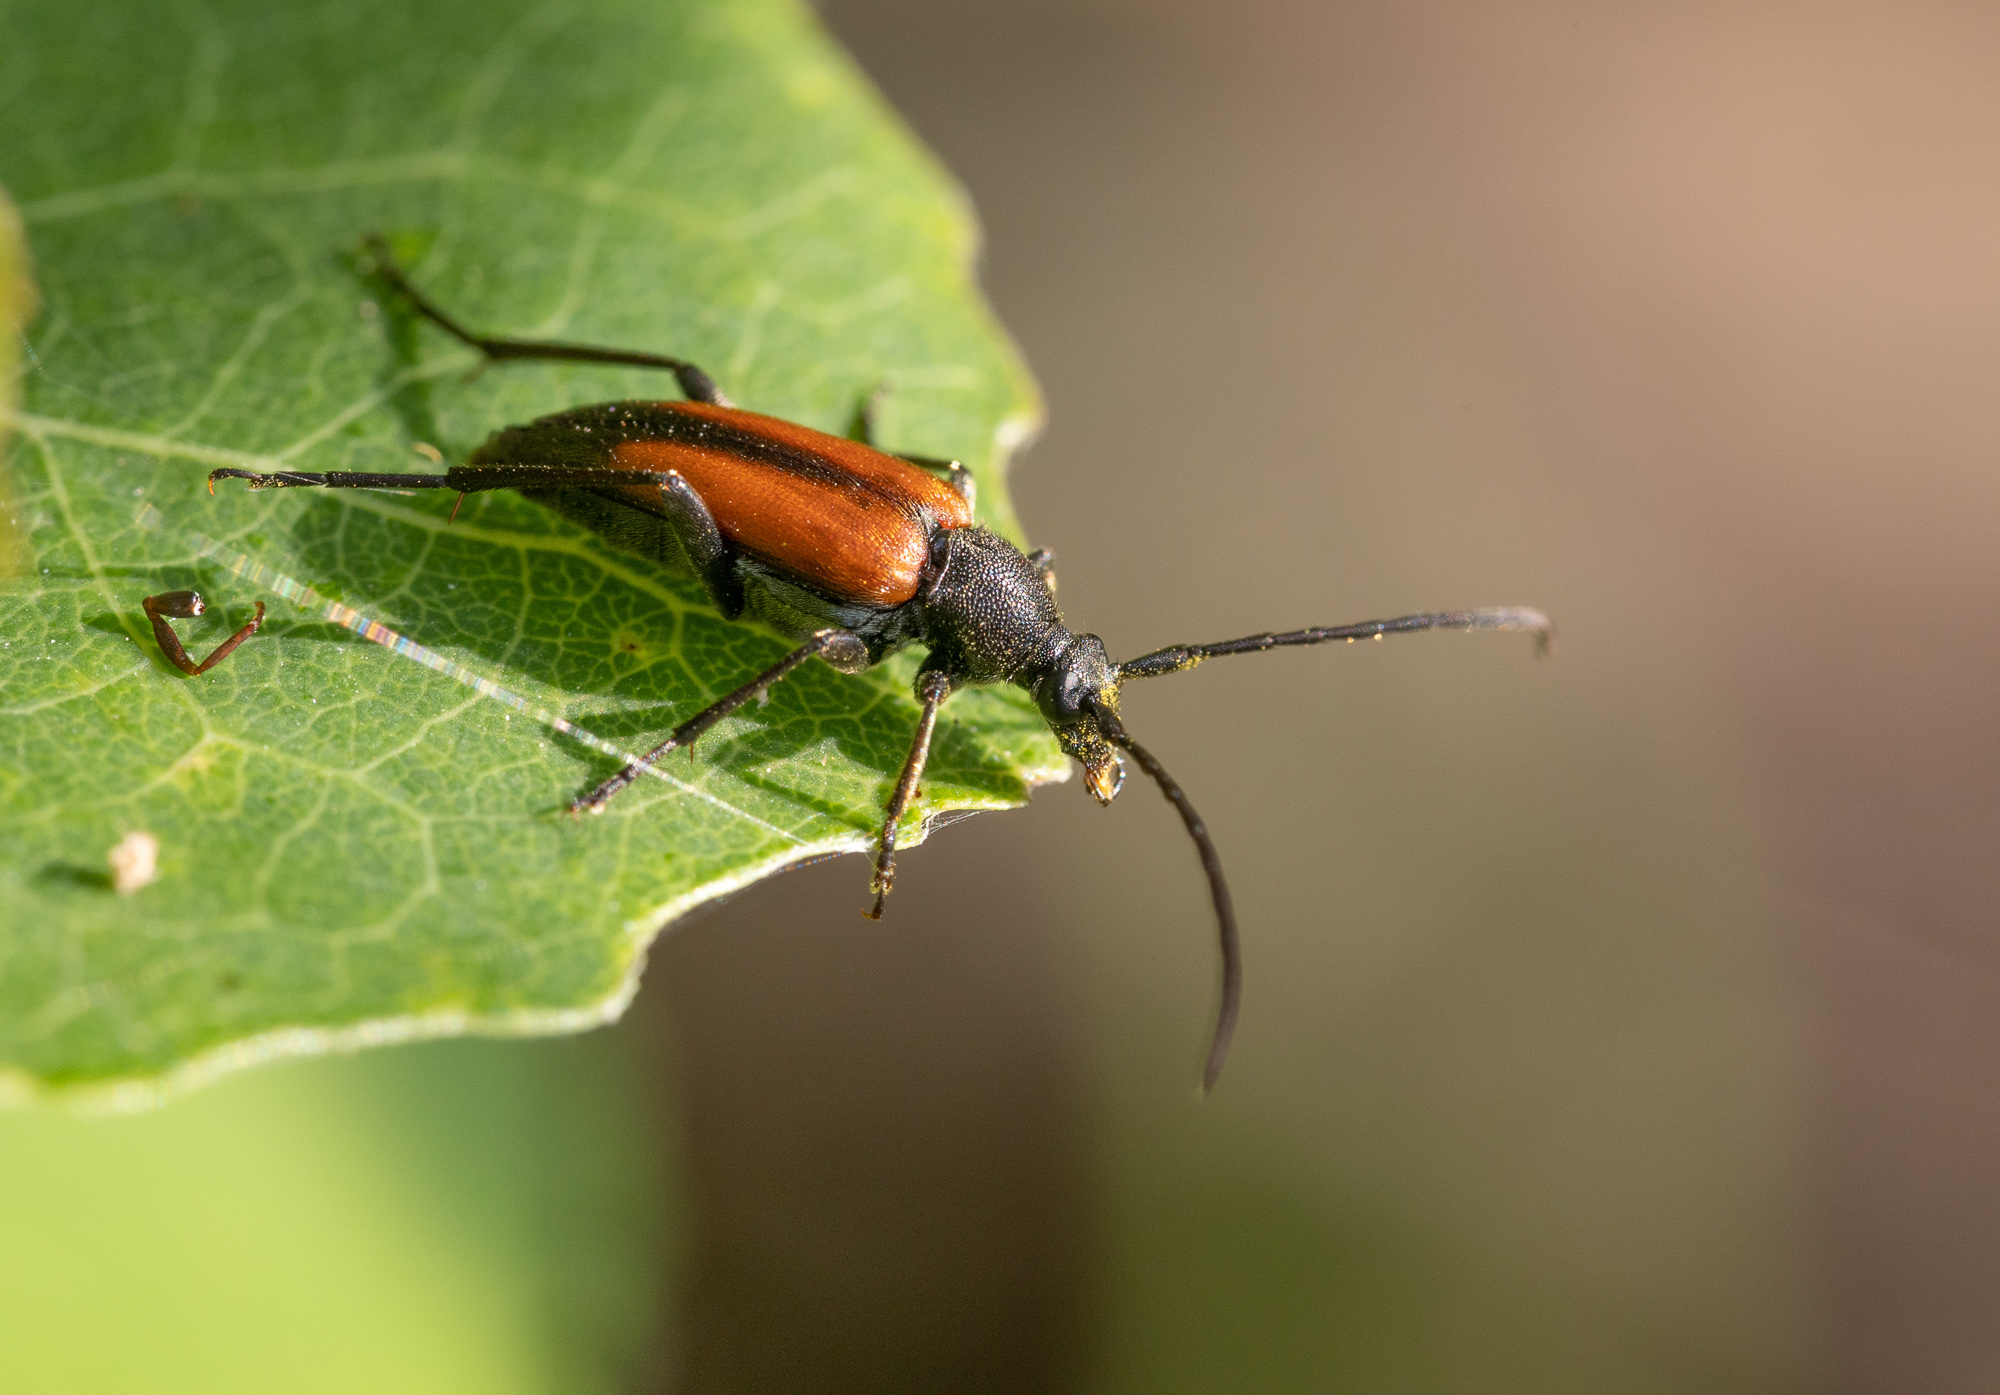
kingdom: Animalia
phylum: Arthropoda
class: Insecta
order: Coleoptera
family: Cerambycidae
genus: Stenurella
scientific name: Stenurella melanura
